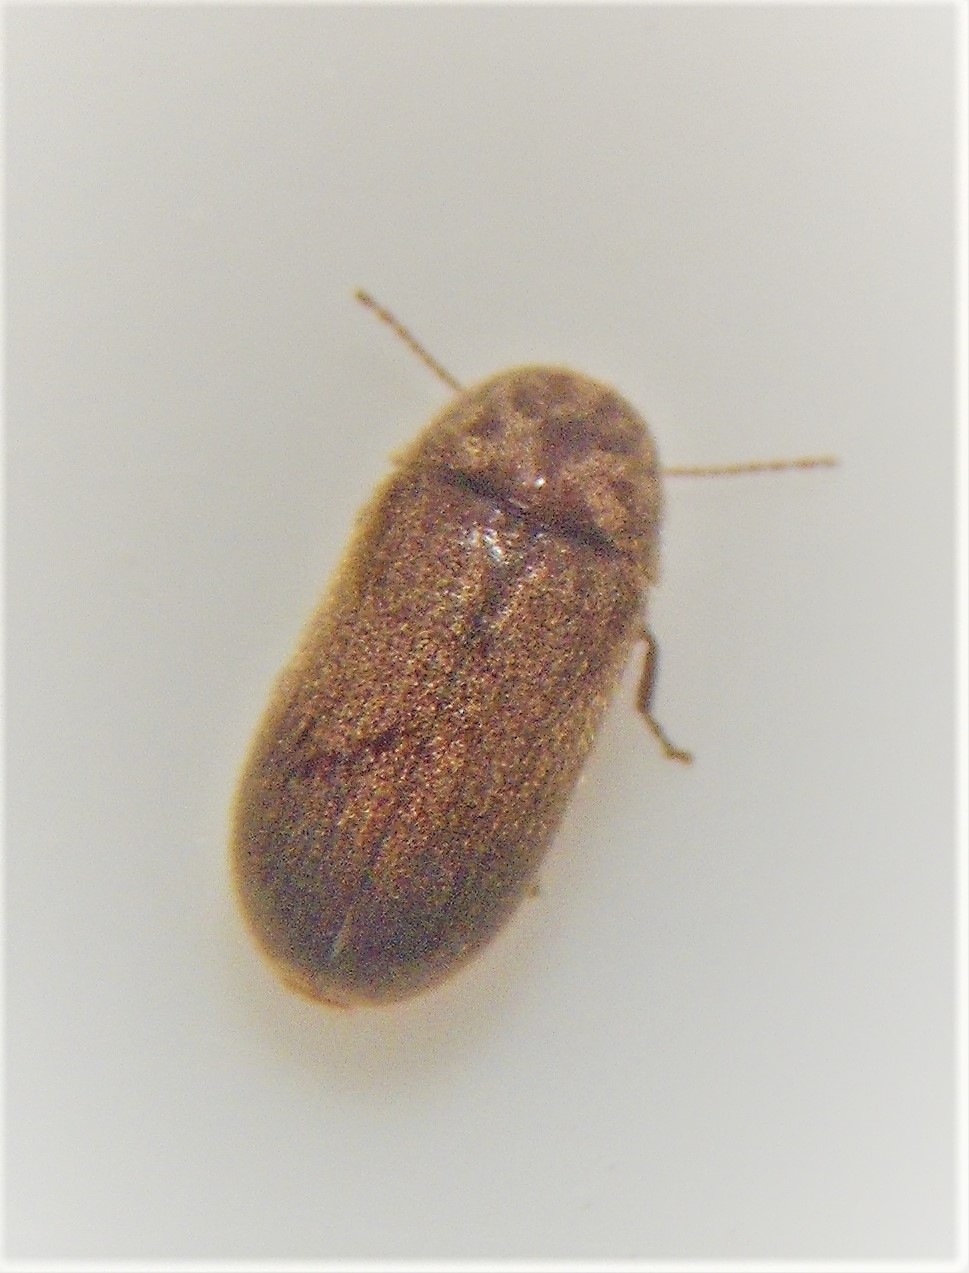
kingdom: Animalia
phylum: Arthropoda
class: Insecta
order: Coleoptera
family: Anobiidae
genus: Xyletobius
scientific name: Xyletobius
